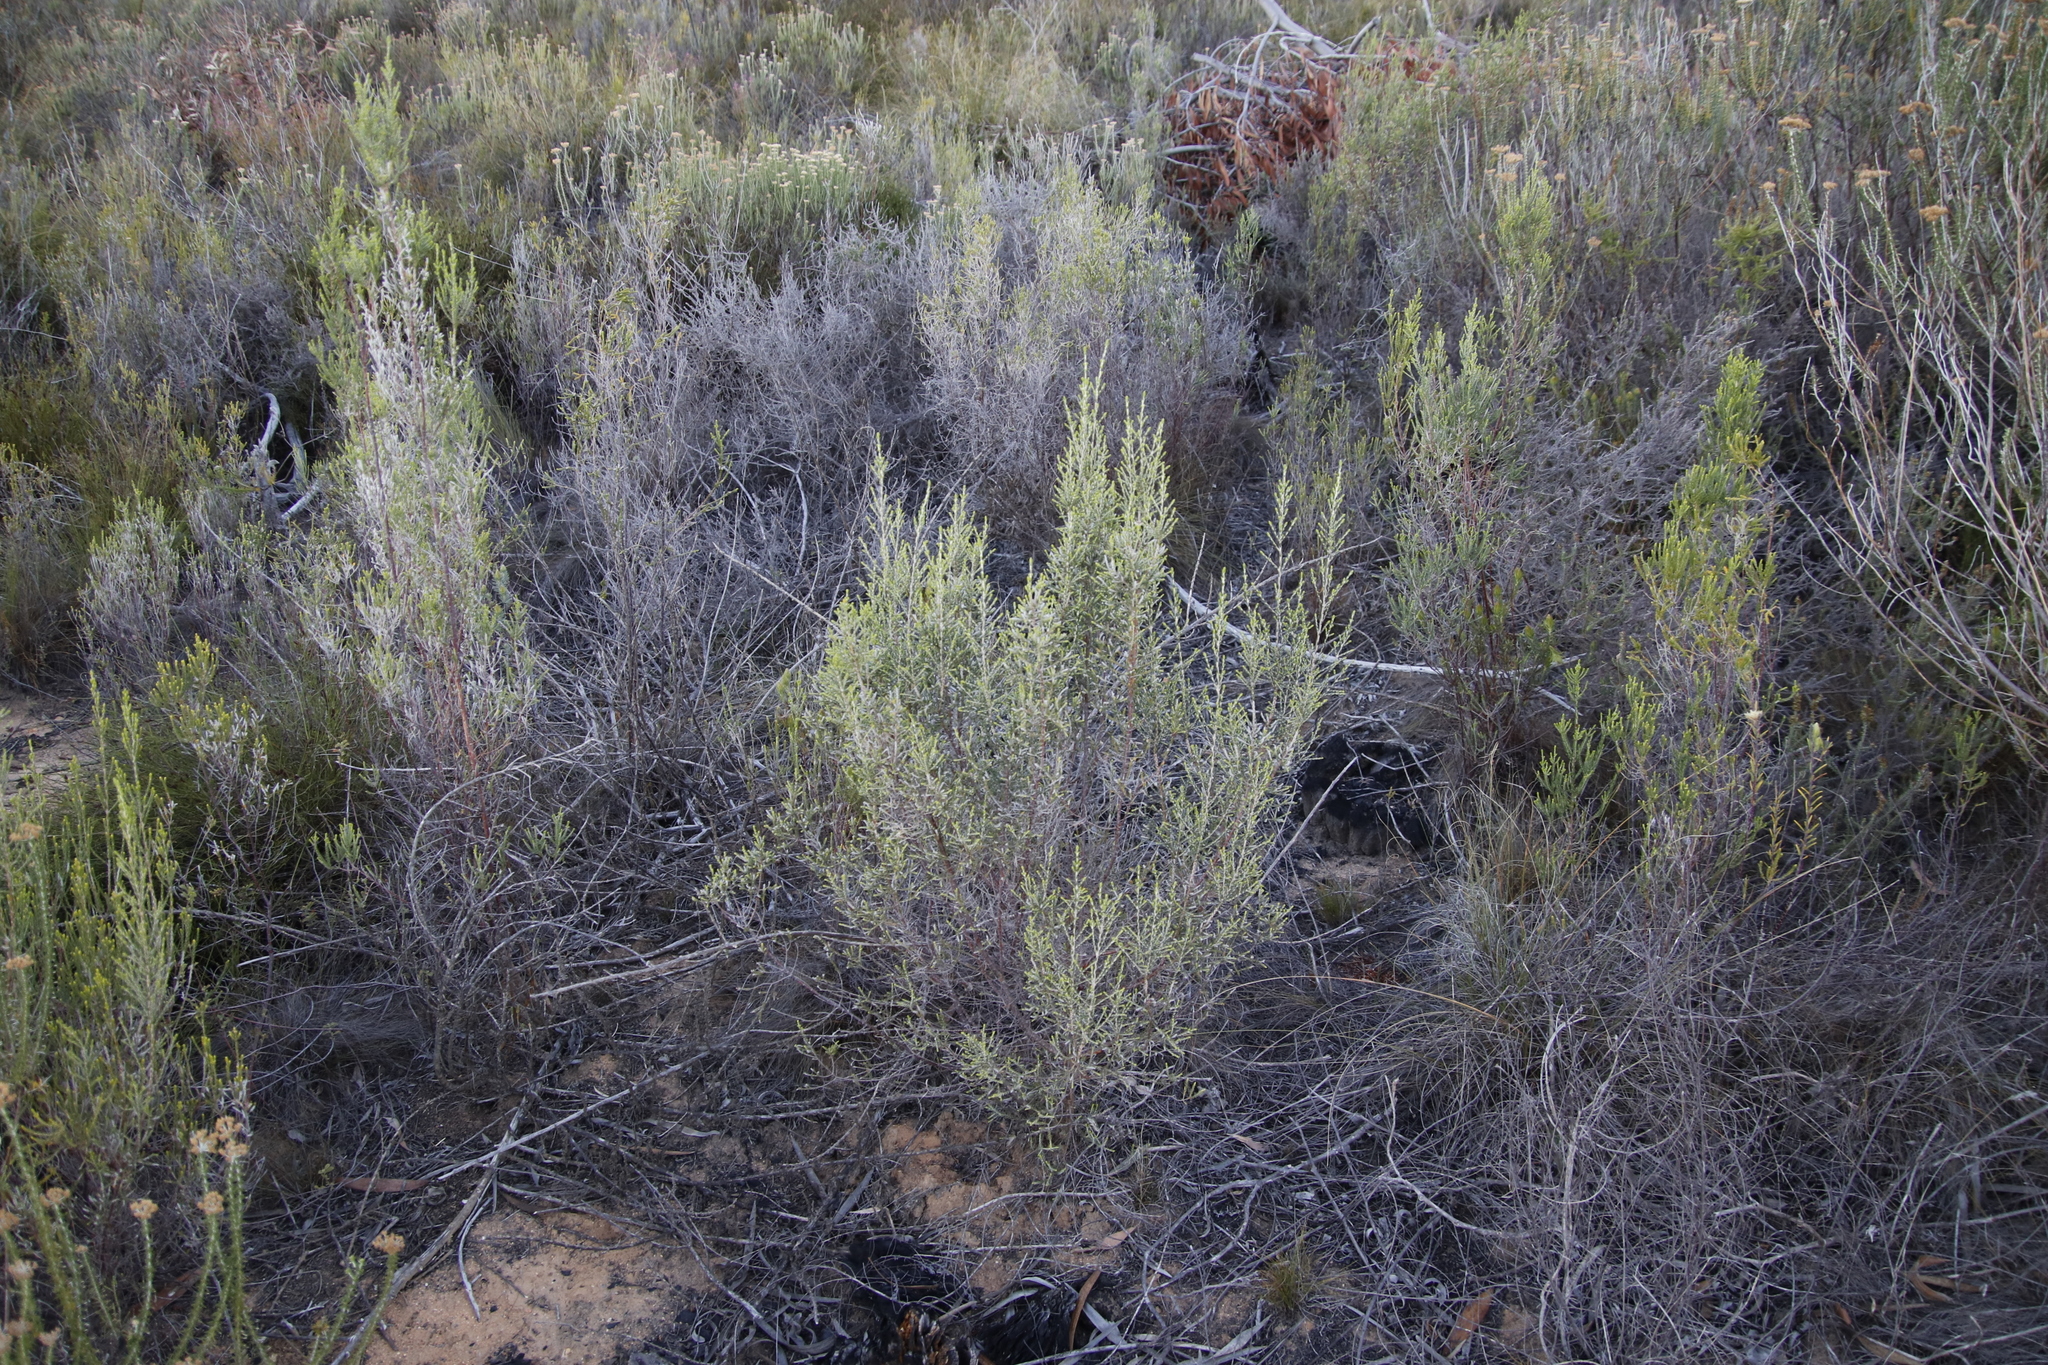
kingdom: Plantae
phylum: Tracheophyta
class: Magnoliopsida
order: Malvales
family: Thymelaeaceae
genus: Passerina
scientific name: Passerina corymbosa
